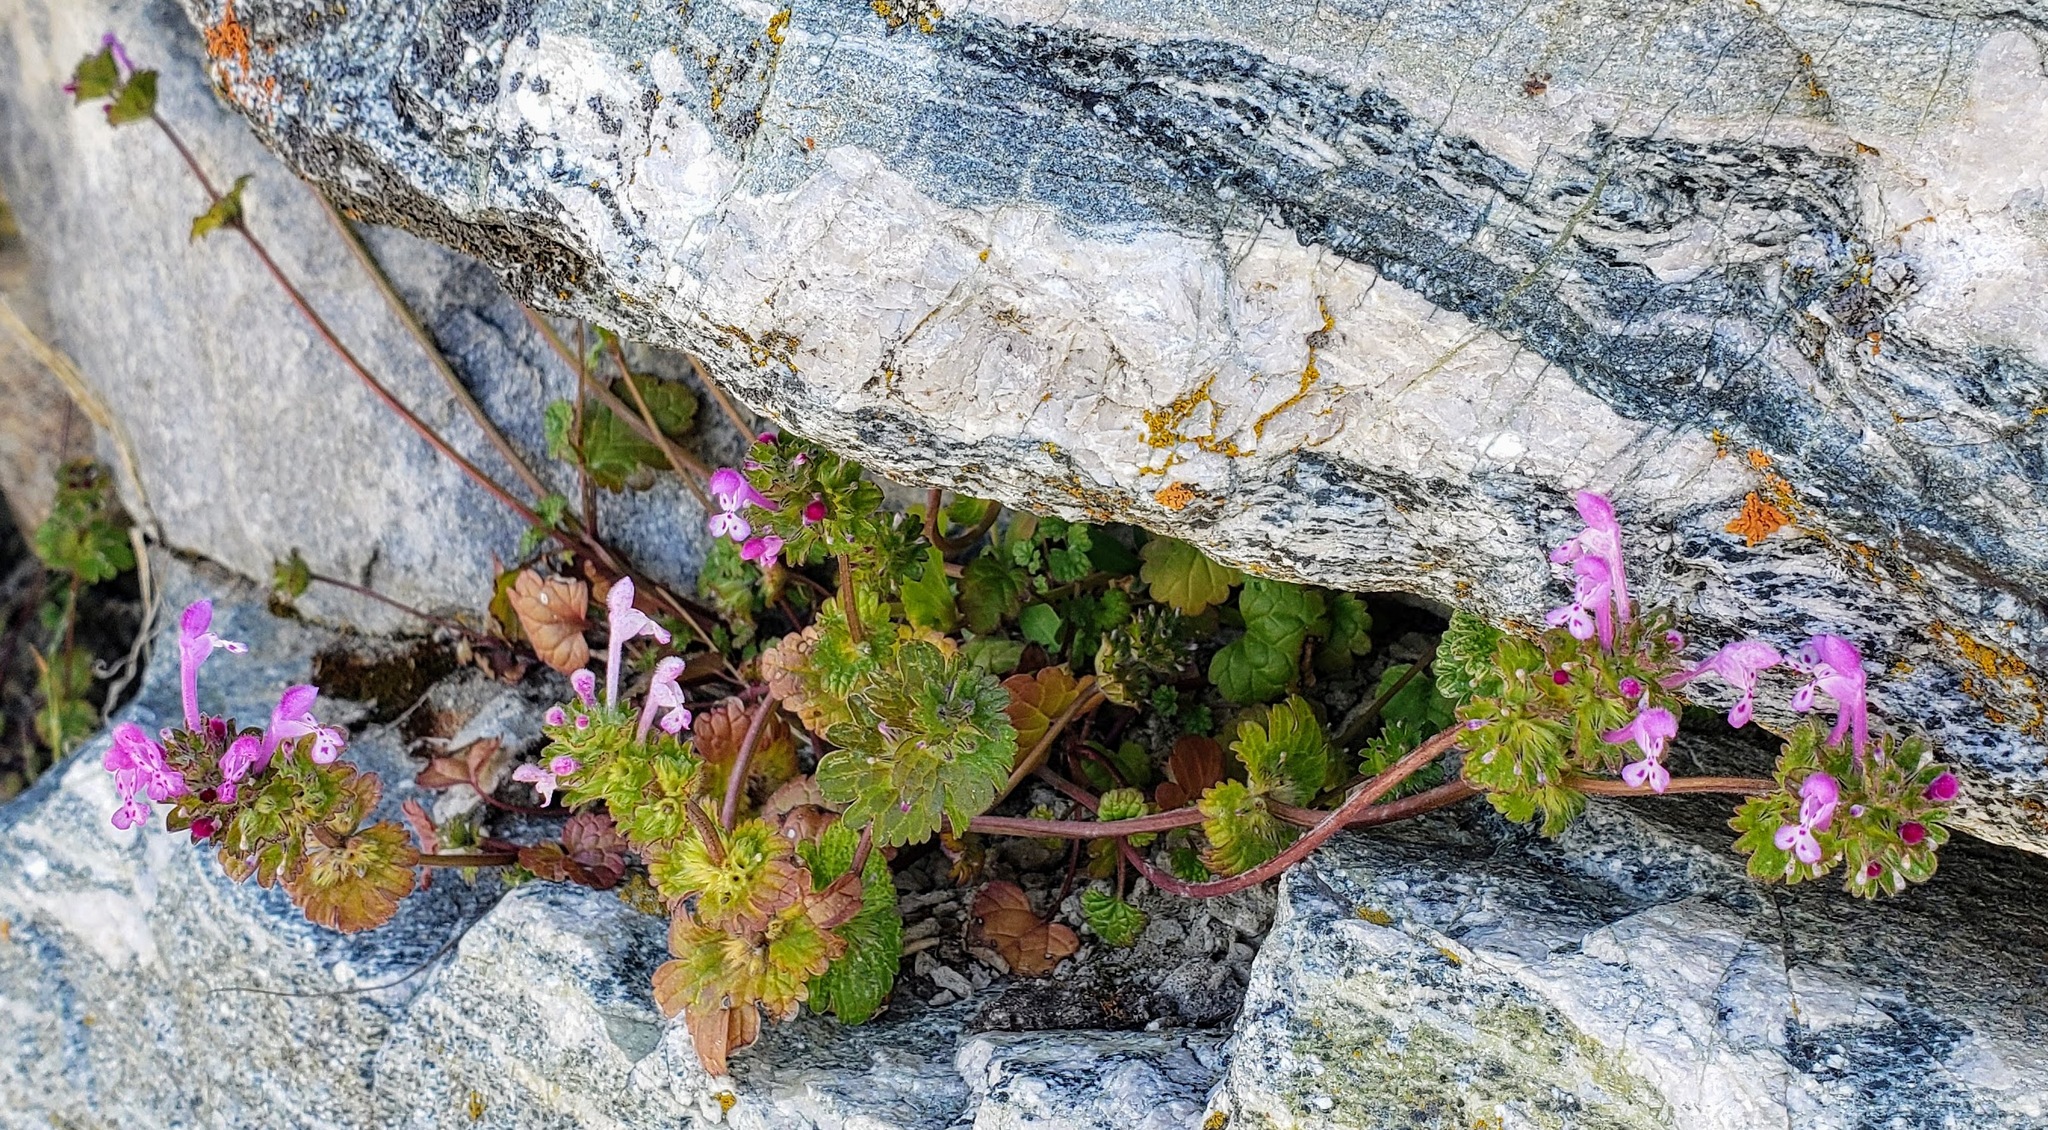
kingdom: Plantae
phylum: Tracheophyta
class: Magnoliopsida
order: Lamiales
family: Lamiaceae
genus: Lamium
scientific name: Lamium amplexicaule
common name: Henbit dead-nettle
